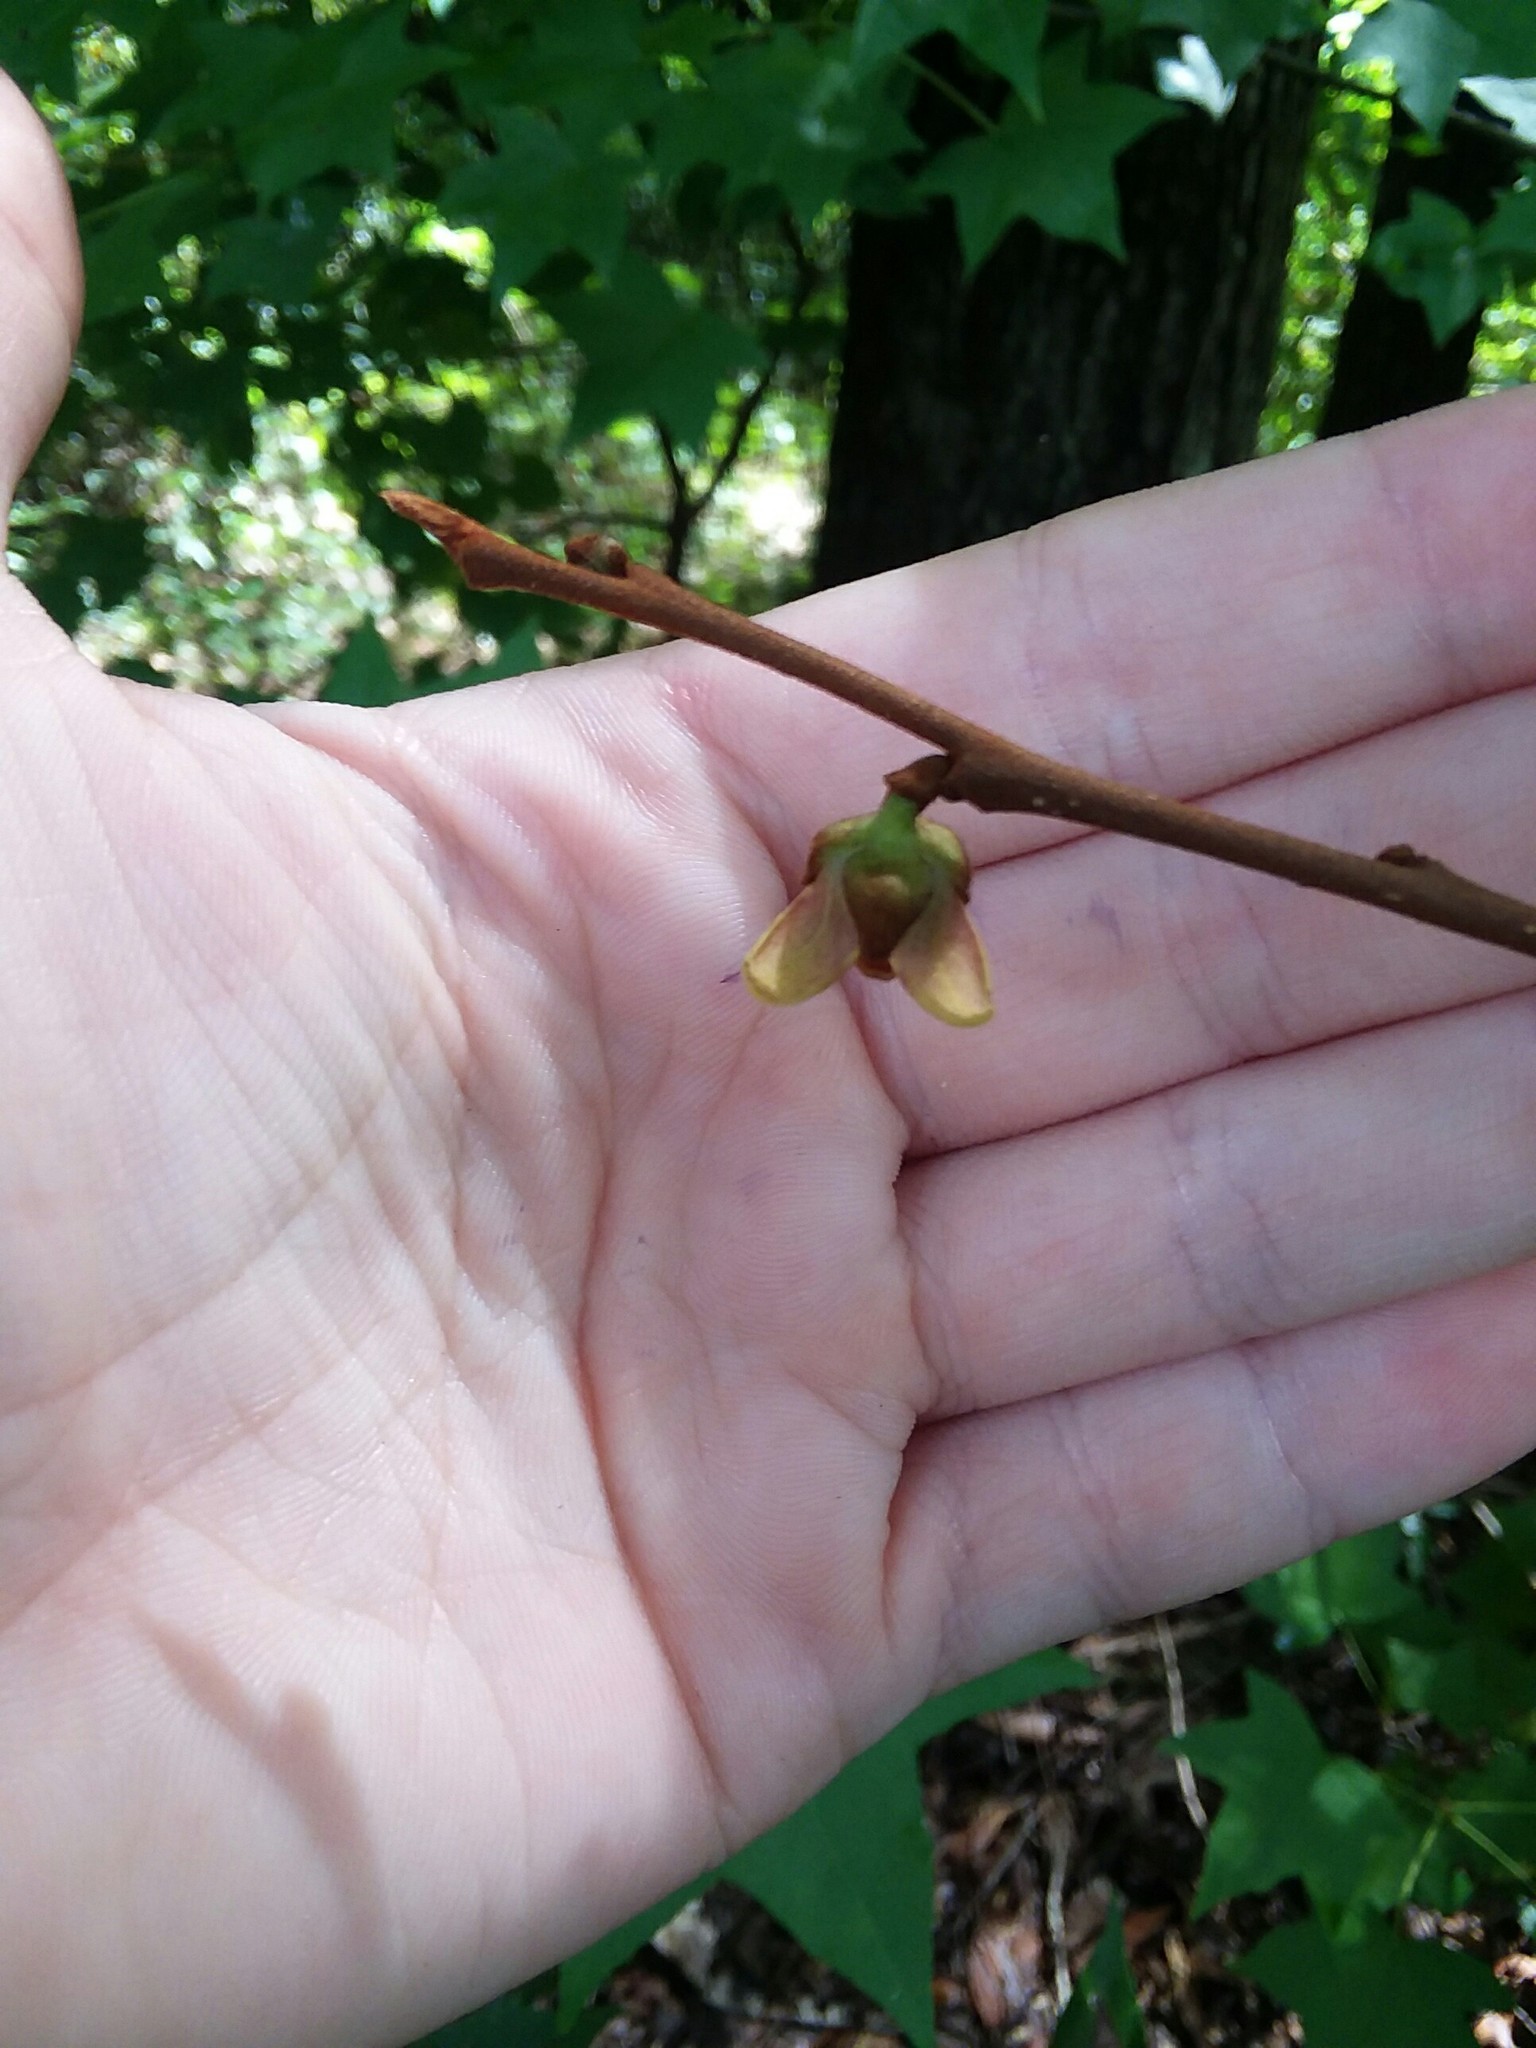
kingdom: Plantae
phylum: Tracheophyta
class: Magnoliopsida
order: Magnoliales
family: Annonaceae
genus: Asimina
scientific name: Asimina parviflora
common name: Dwarf pawpaw
